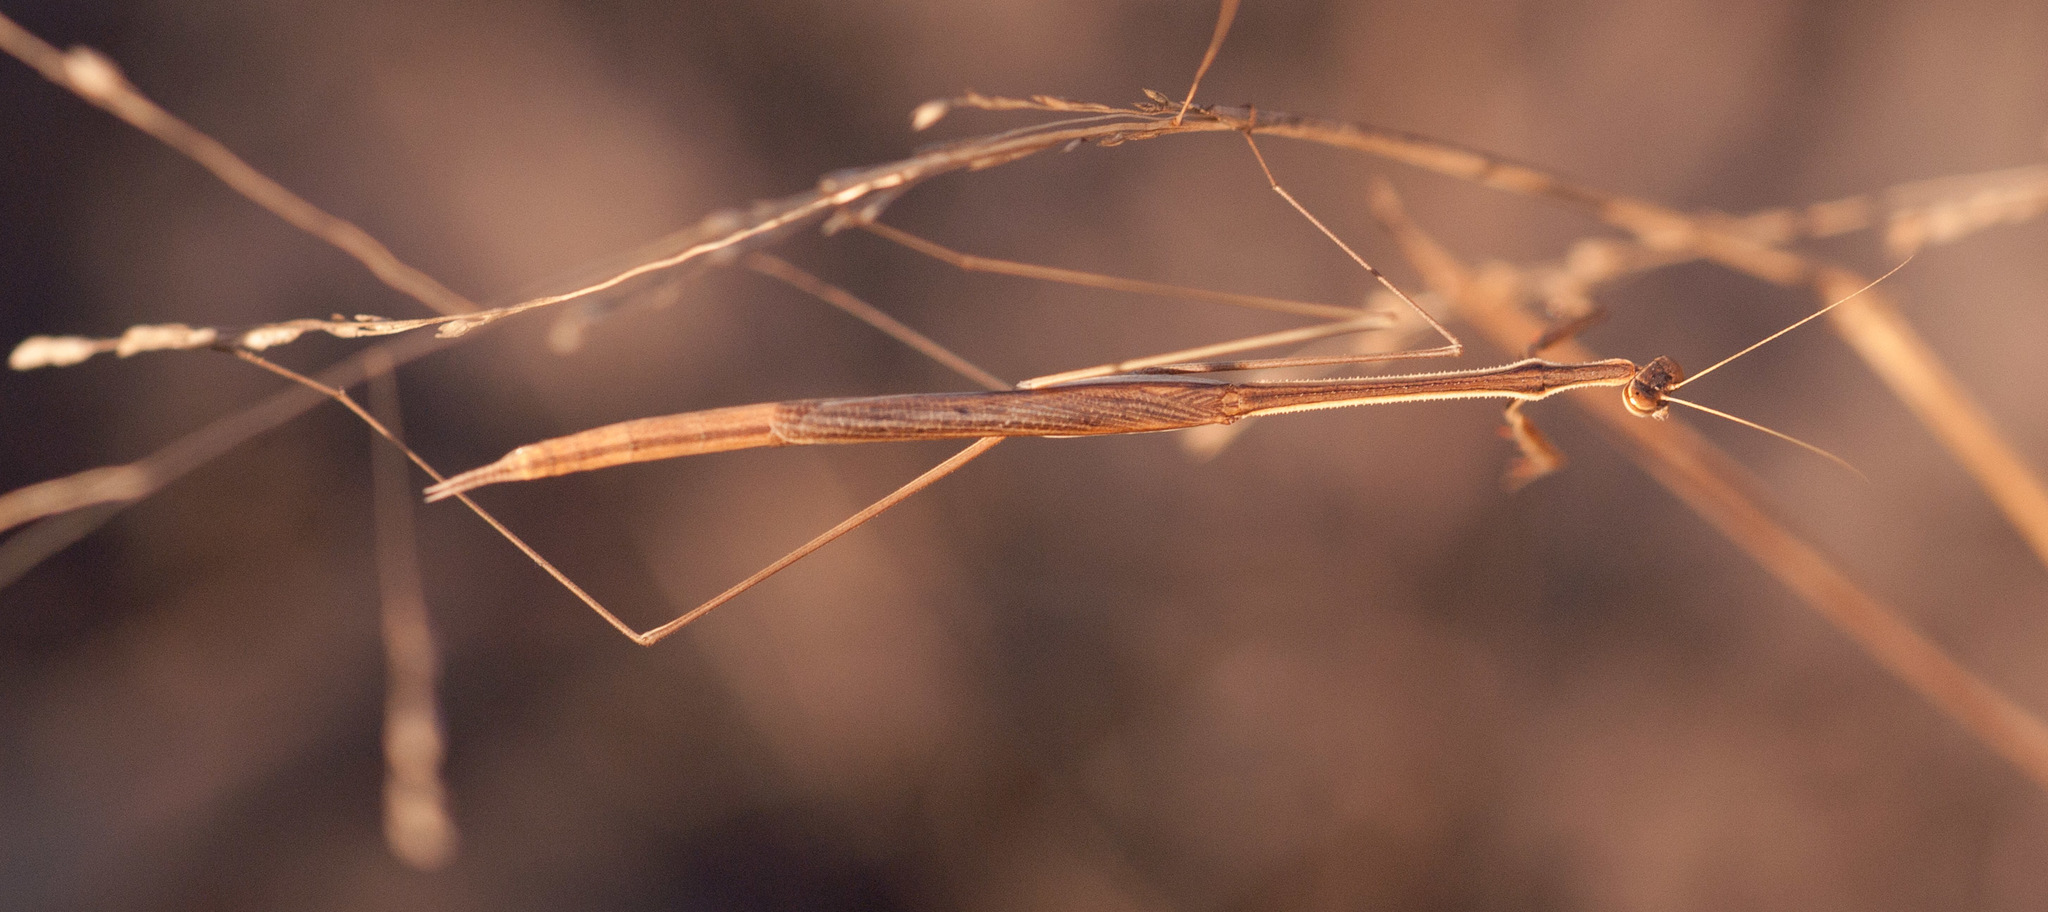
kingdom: Animalia
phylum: Arthropoda
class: Insecta
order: Mantodea
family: Mantidae
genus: Rhodomantis
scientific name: Rhodomantis queenslandica
